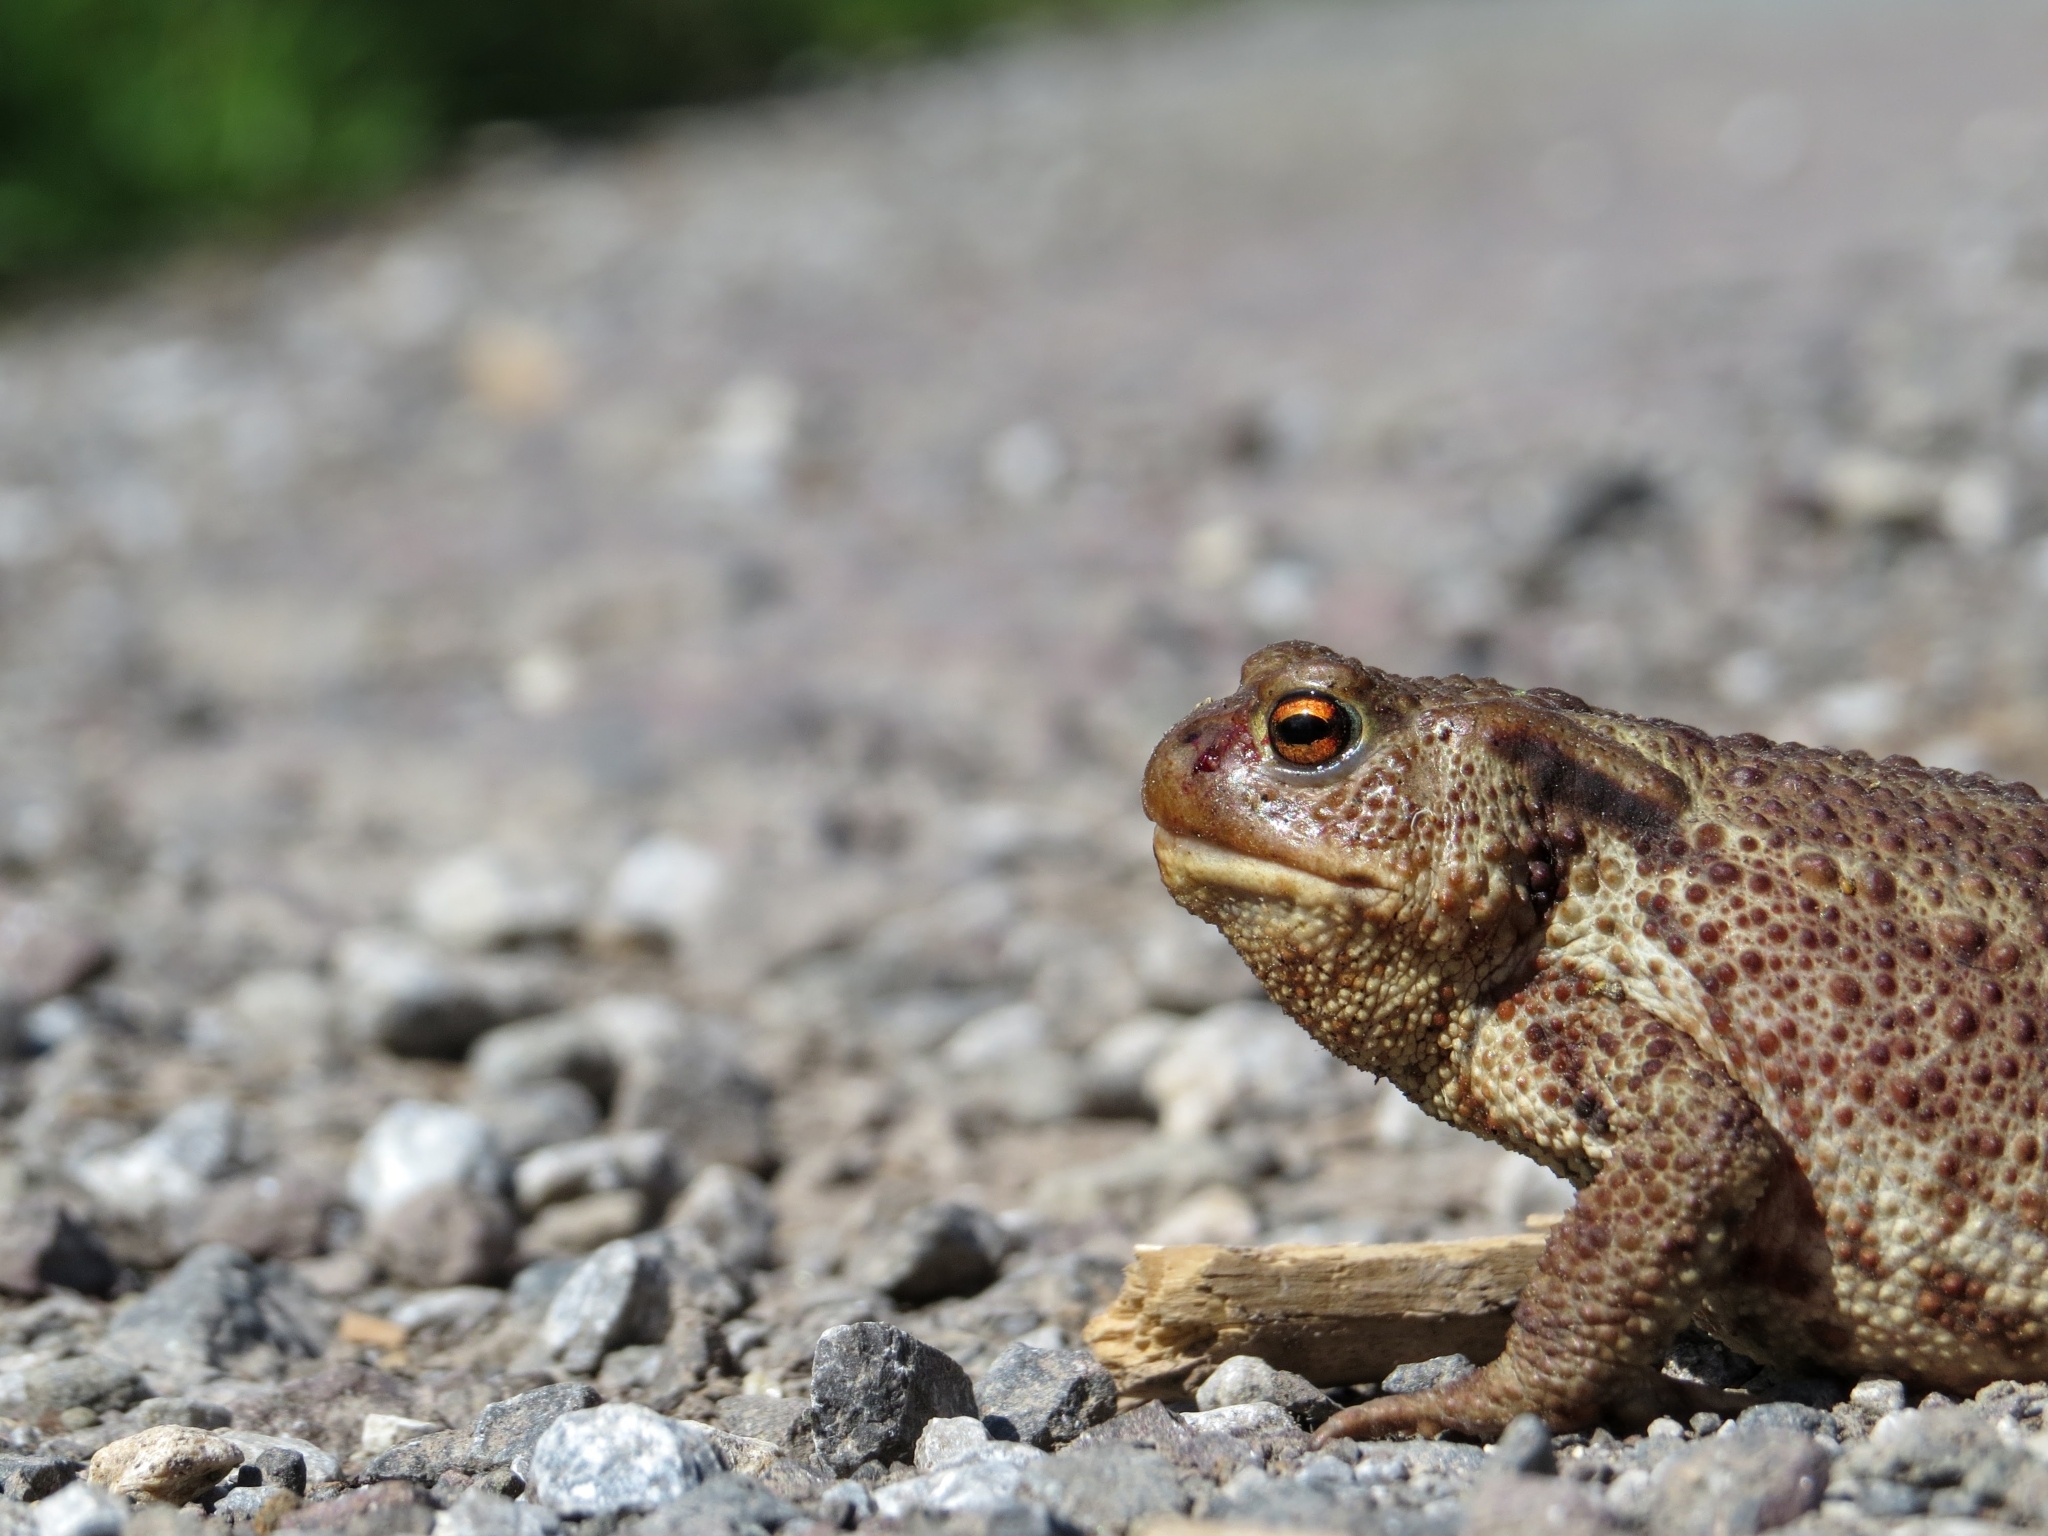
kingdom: Animalia
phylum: Chordata
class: Amphibia
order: Anura
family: Bufonidae
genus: Bufo
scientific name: Bufo bufo
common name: Common toad
